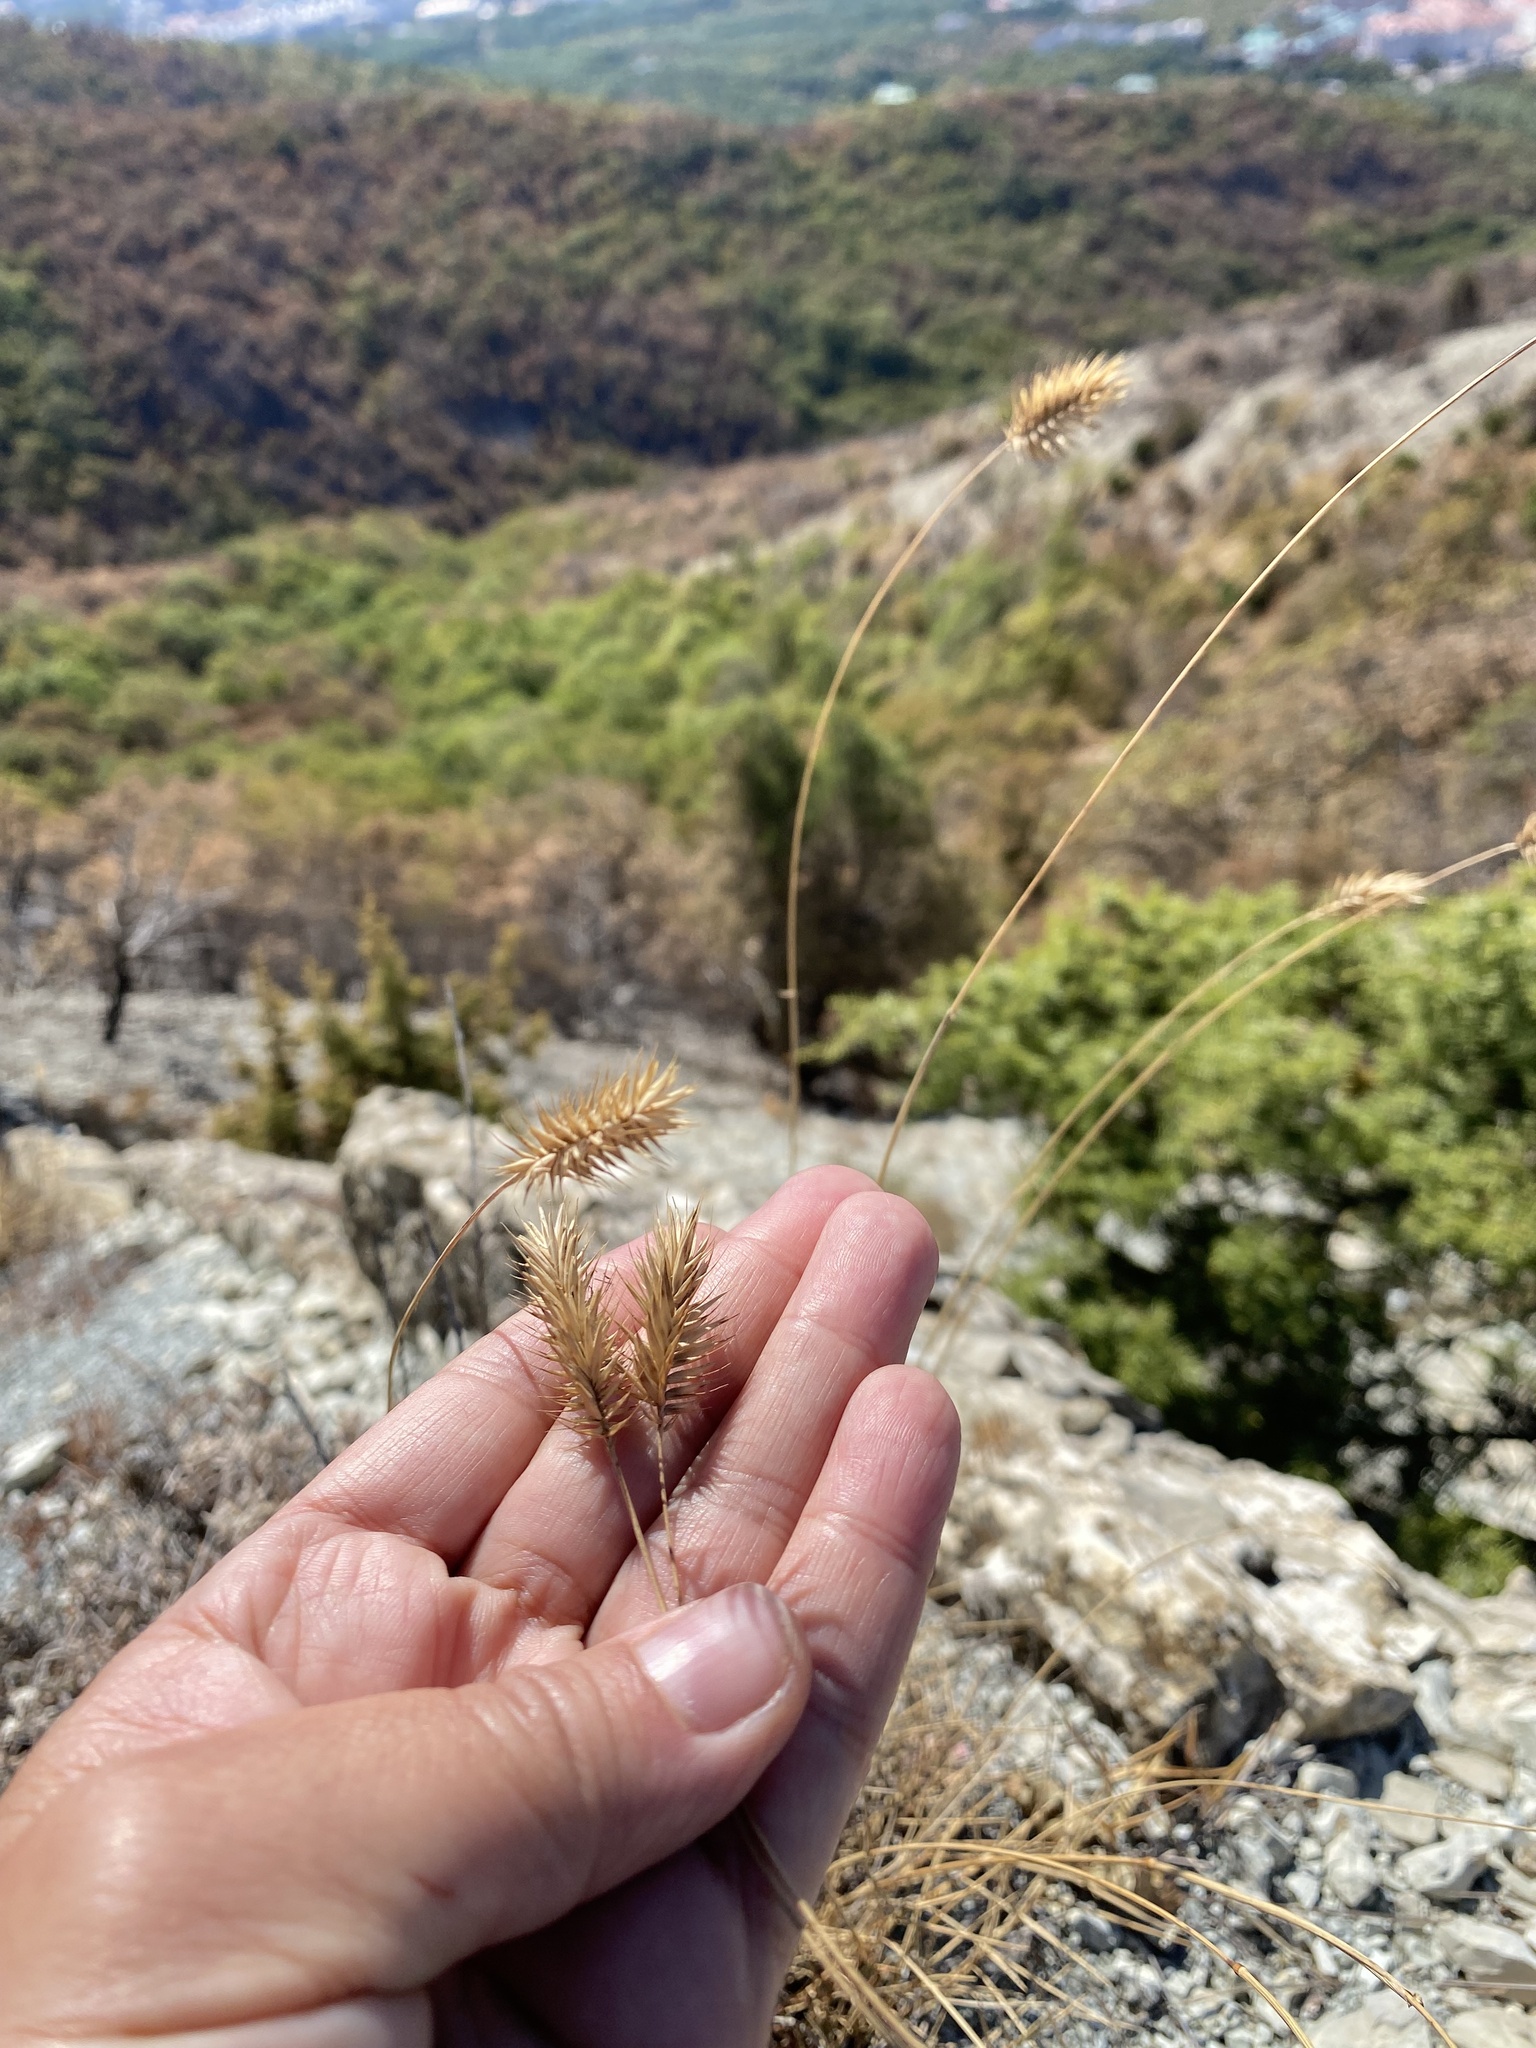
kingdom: Plantae
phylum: Tracheophyta
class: Liliopsida
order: Poales
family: Poaceae
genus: Agropyron
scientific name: Agropyron cristatum
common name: Crested wheatgrass
